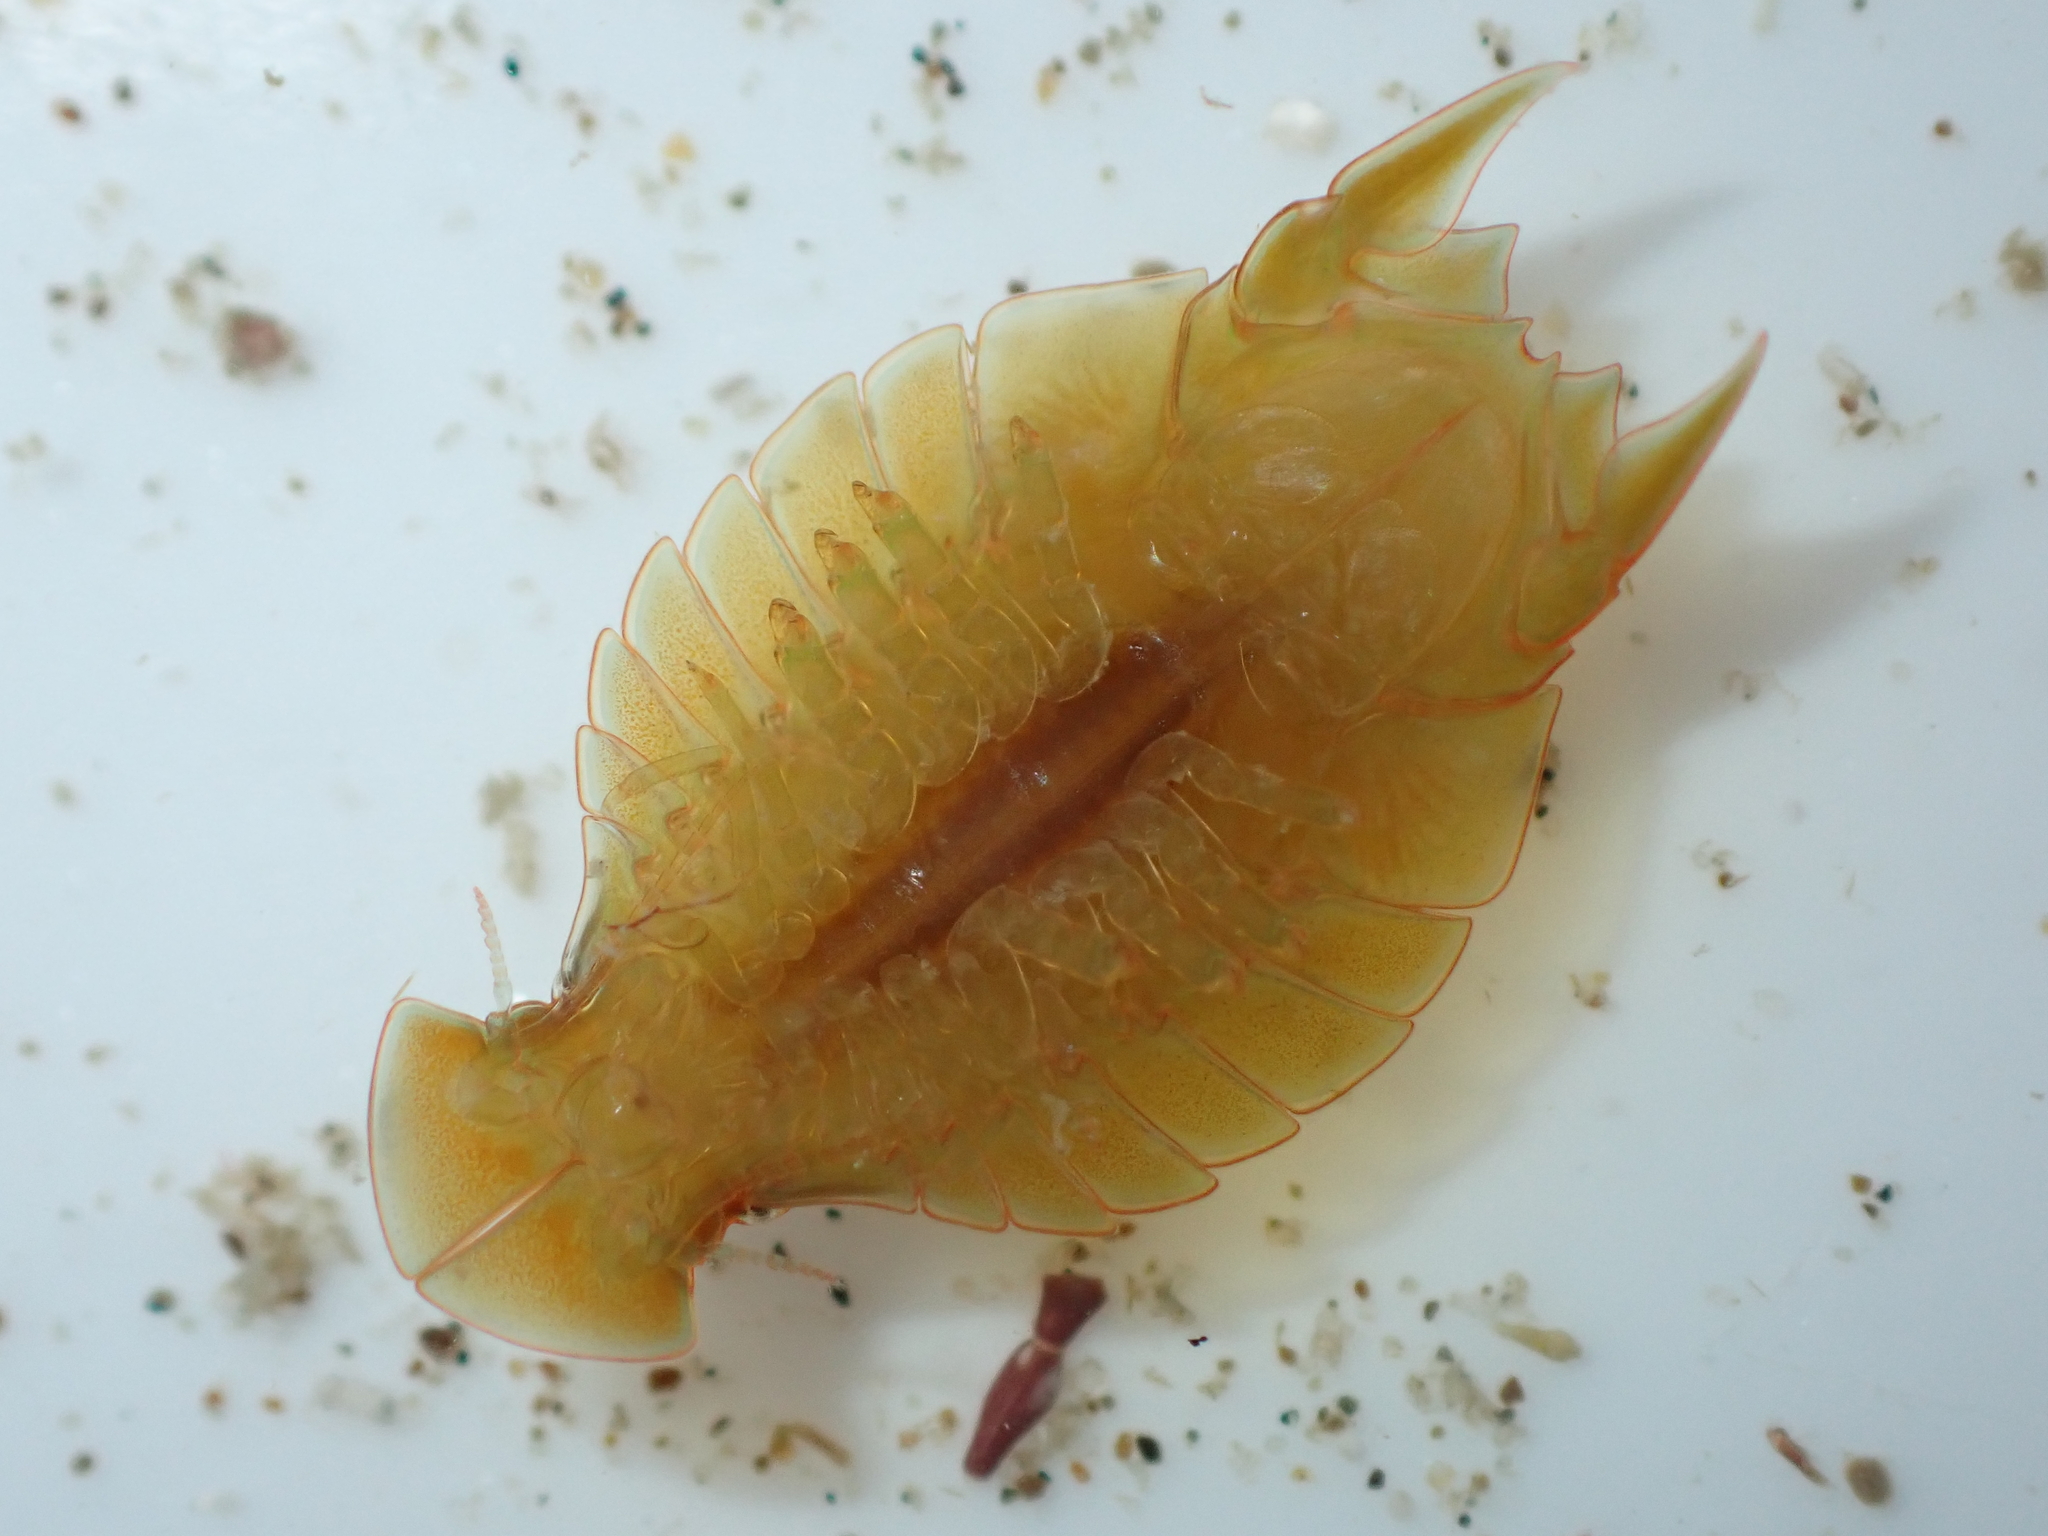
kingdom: Animalia
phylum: Arthropoda
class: Malacostraca
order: Isopoda
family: Sphaeromatidae
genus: Amphoroidea
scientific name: Amphoroidea media
